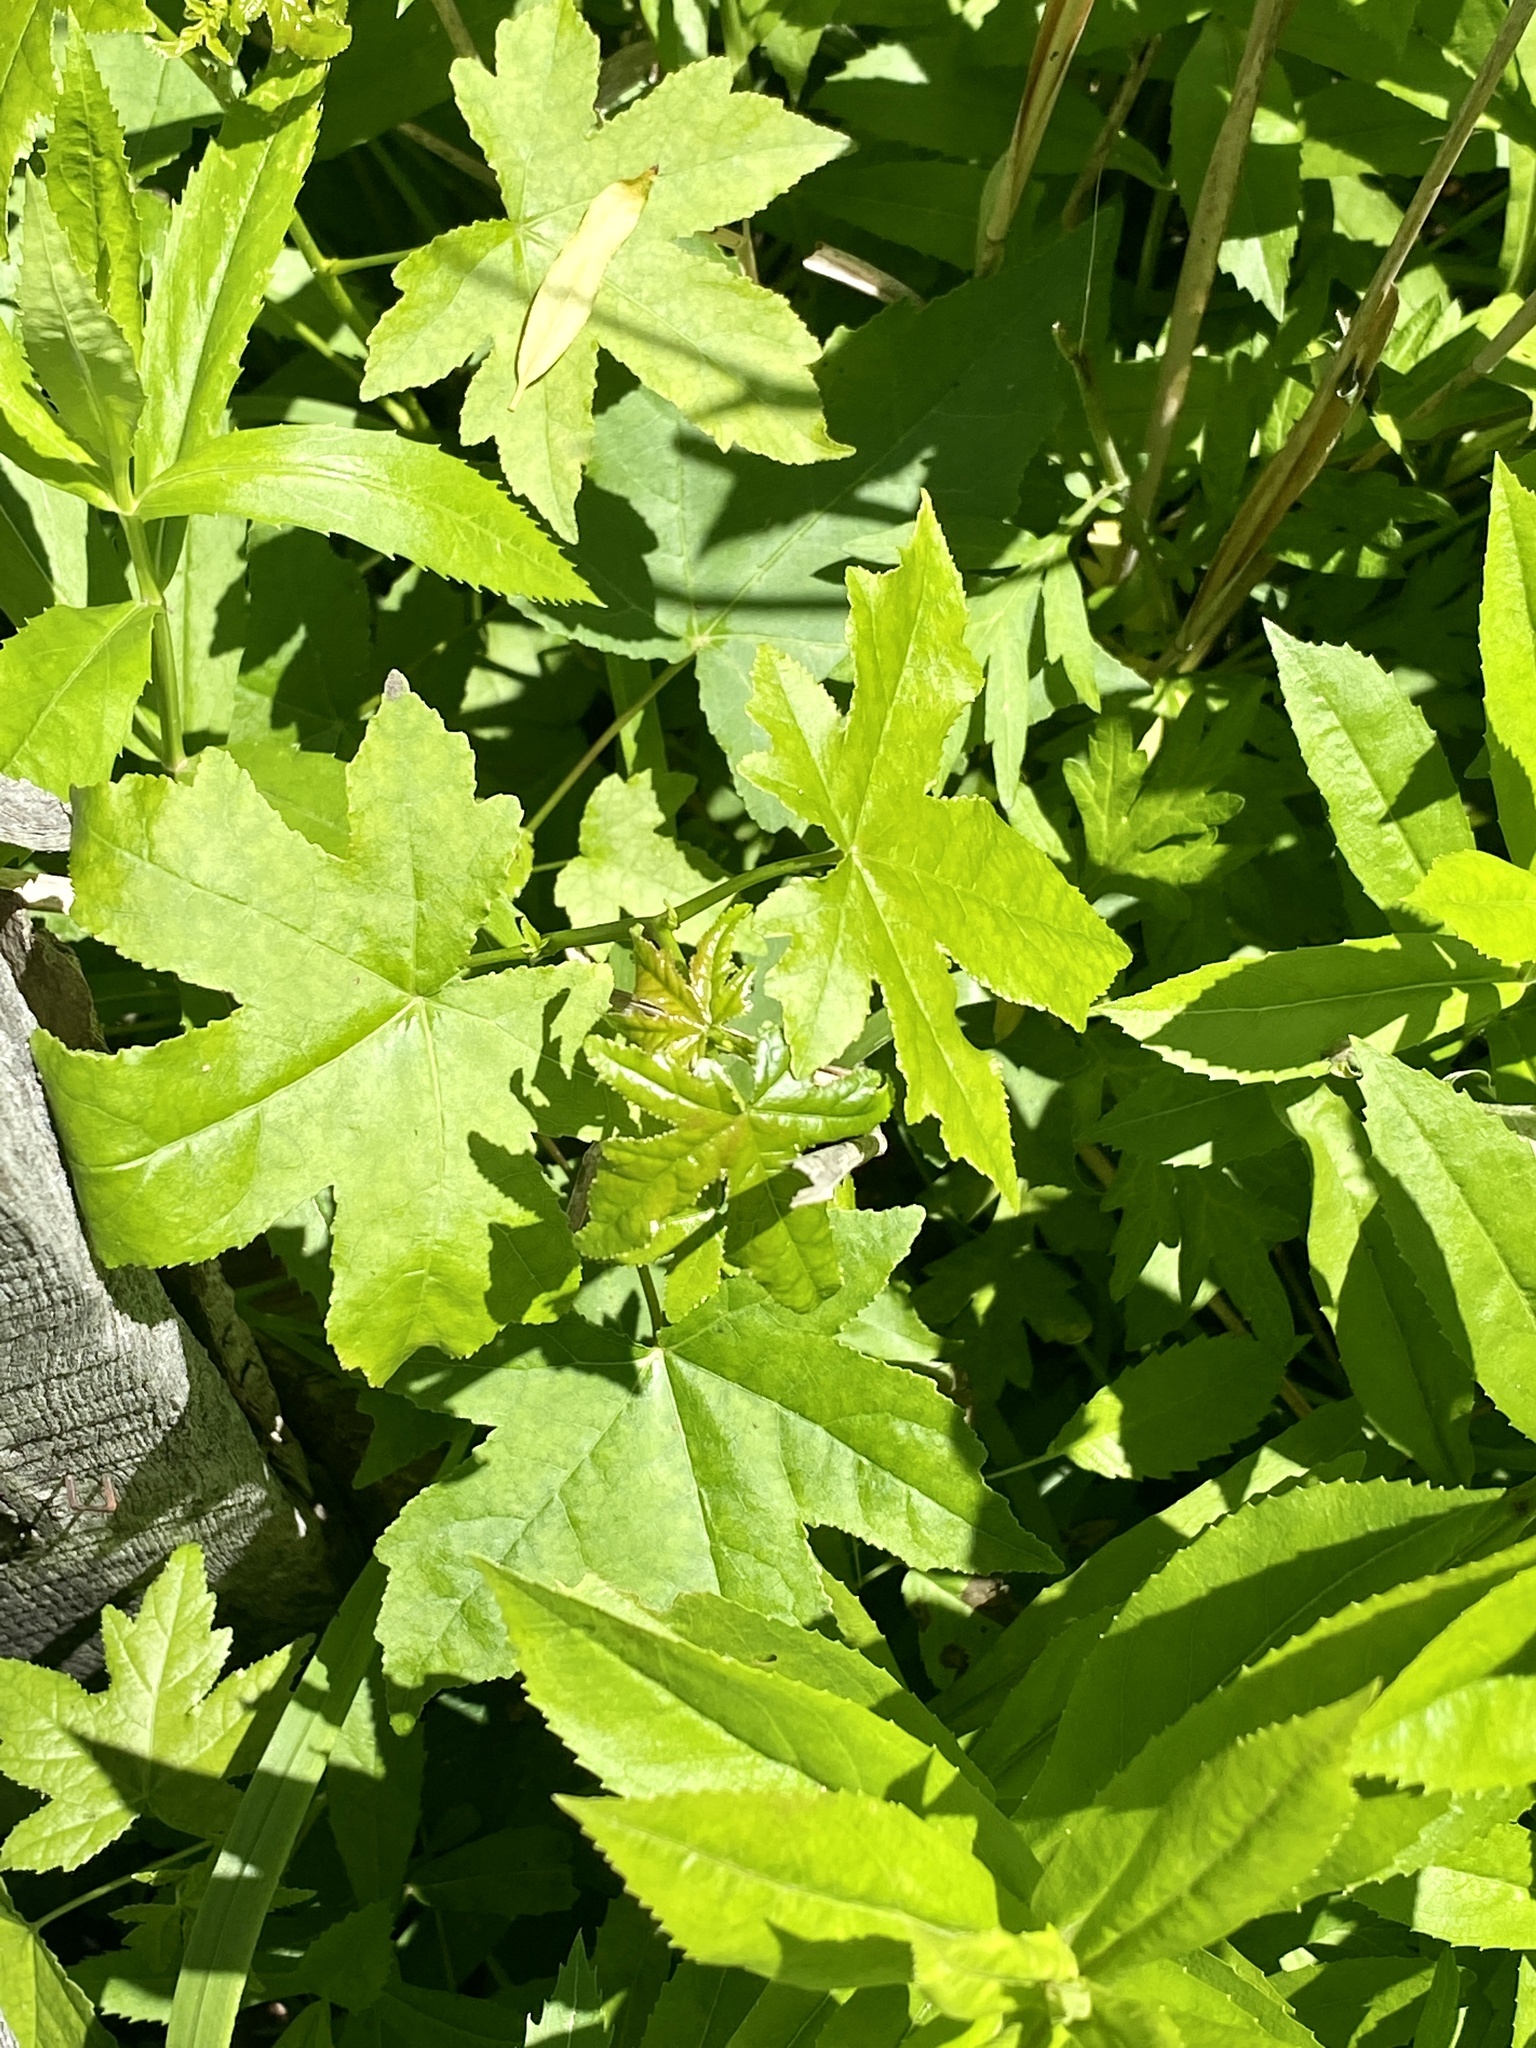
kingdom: Plantae
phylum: Tracheophyta
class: Magnoliopsida
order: Saxifragales
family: Altingiaceae
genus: Liquidambar
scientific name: Liquidambar styraciflua
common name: Sweet gum
